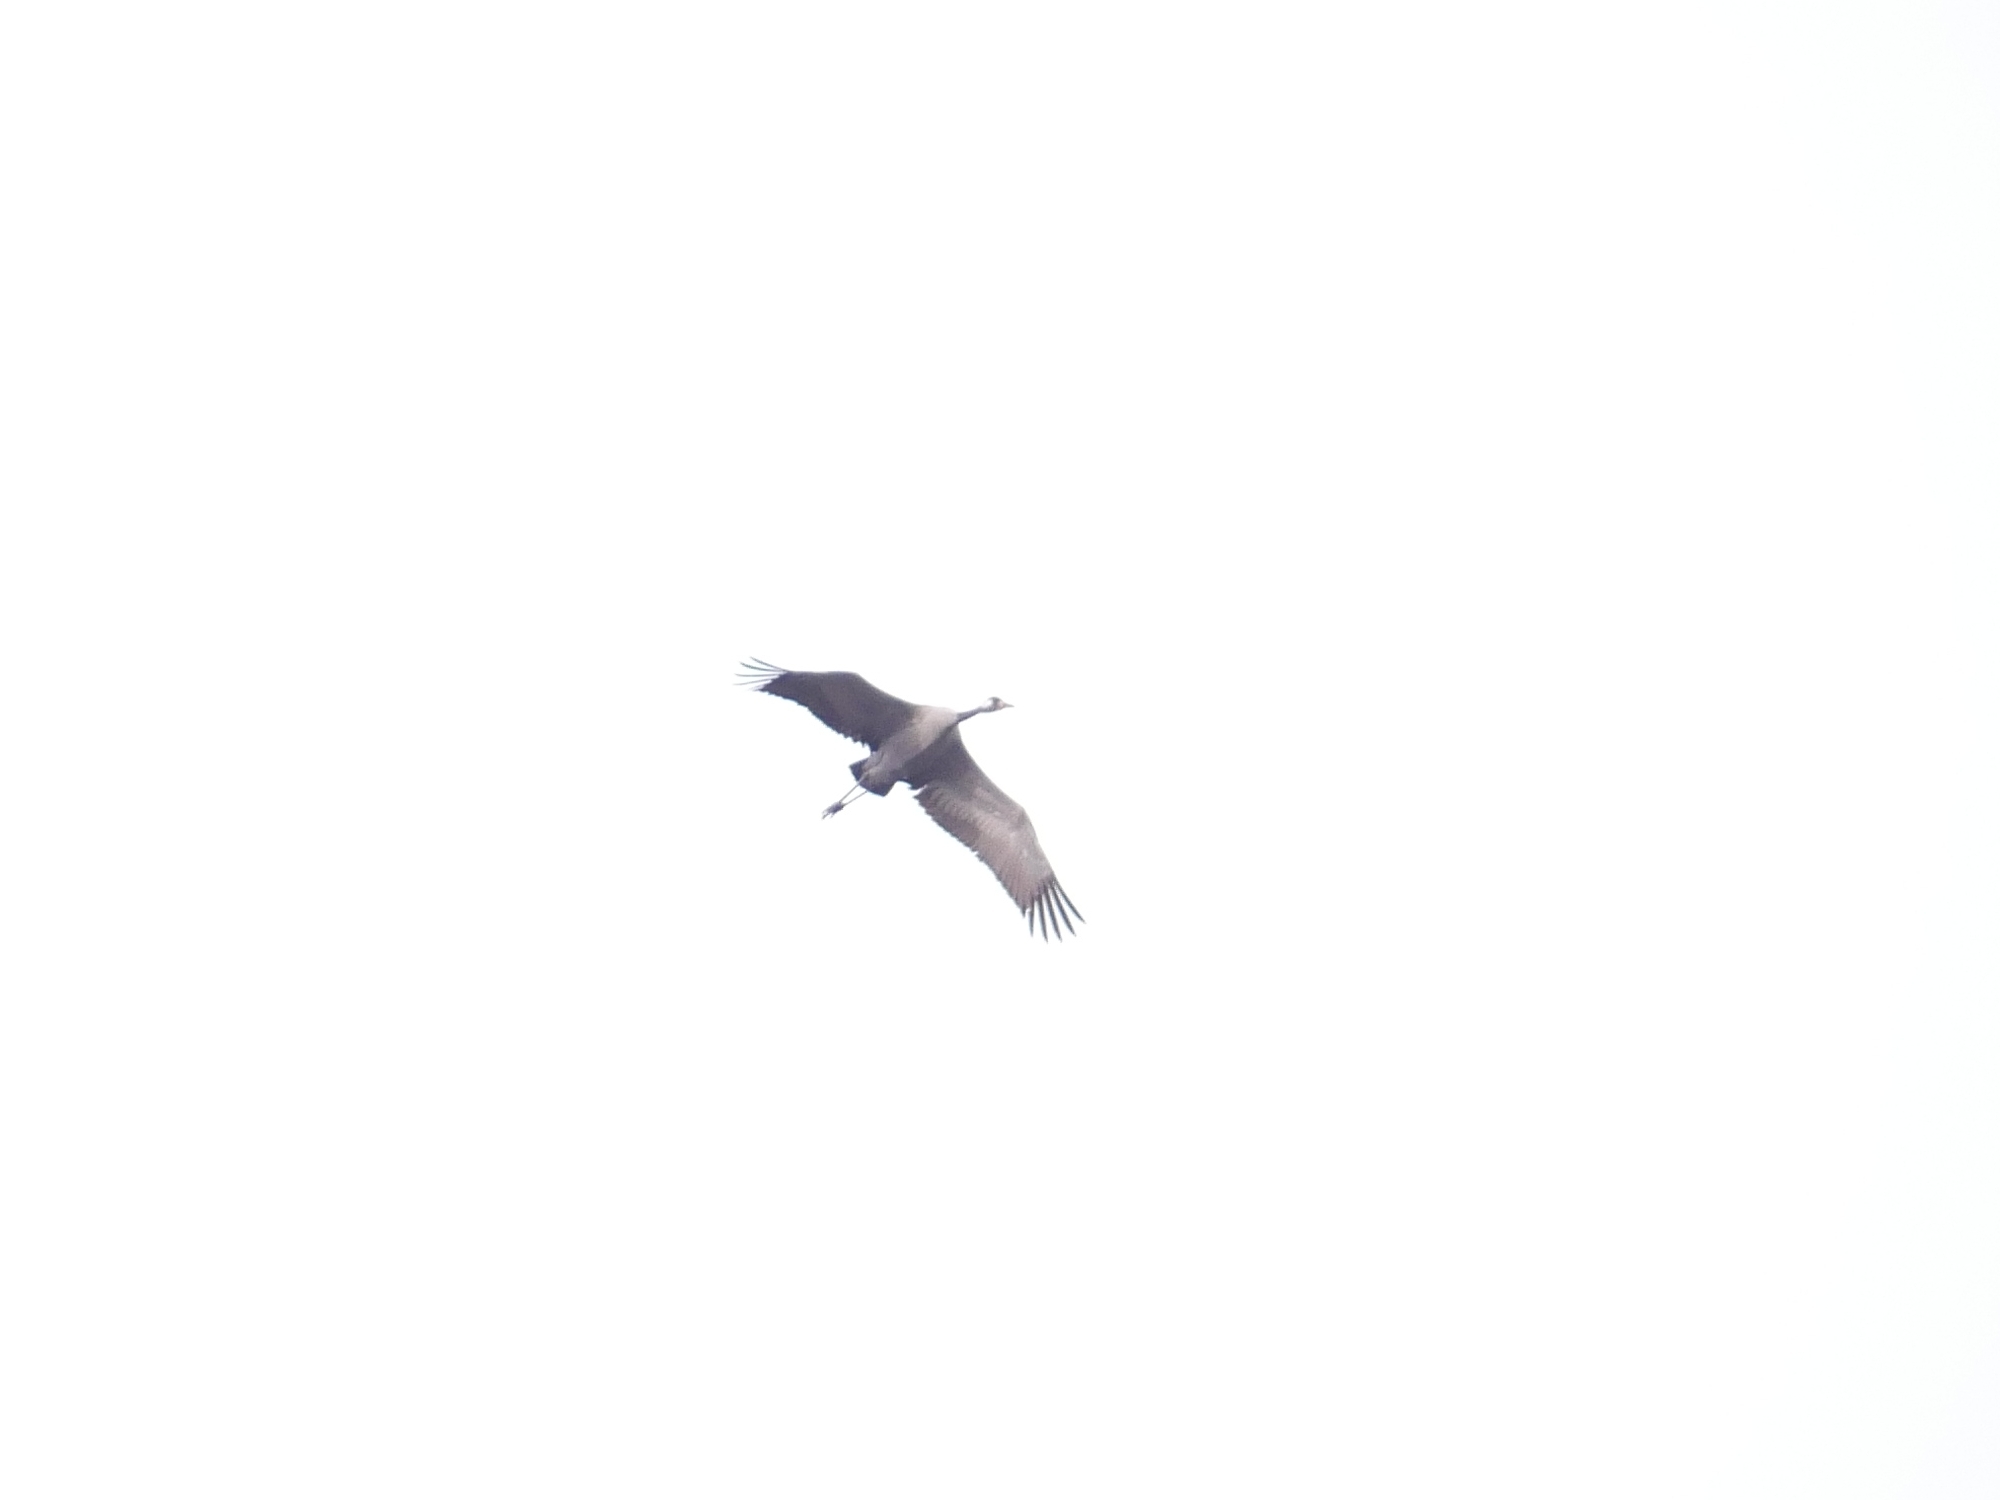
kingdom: Animalia
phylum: Chordata
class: Aves
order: Gruiformes
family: Gruidae
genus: Grus
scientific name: Grus grus
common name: Common crane
